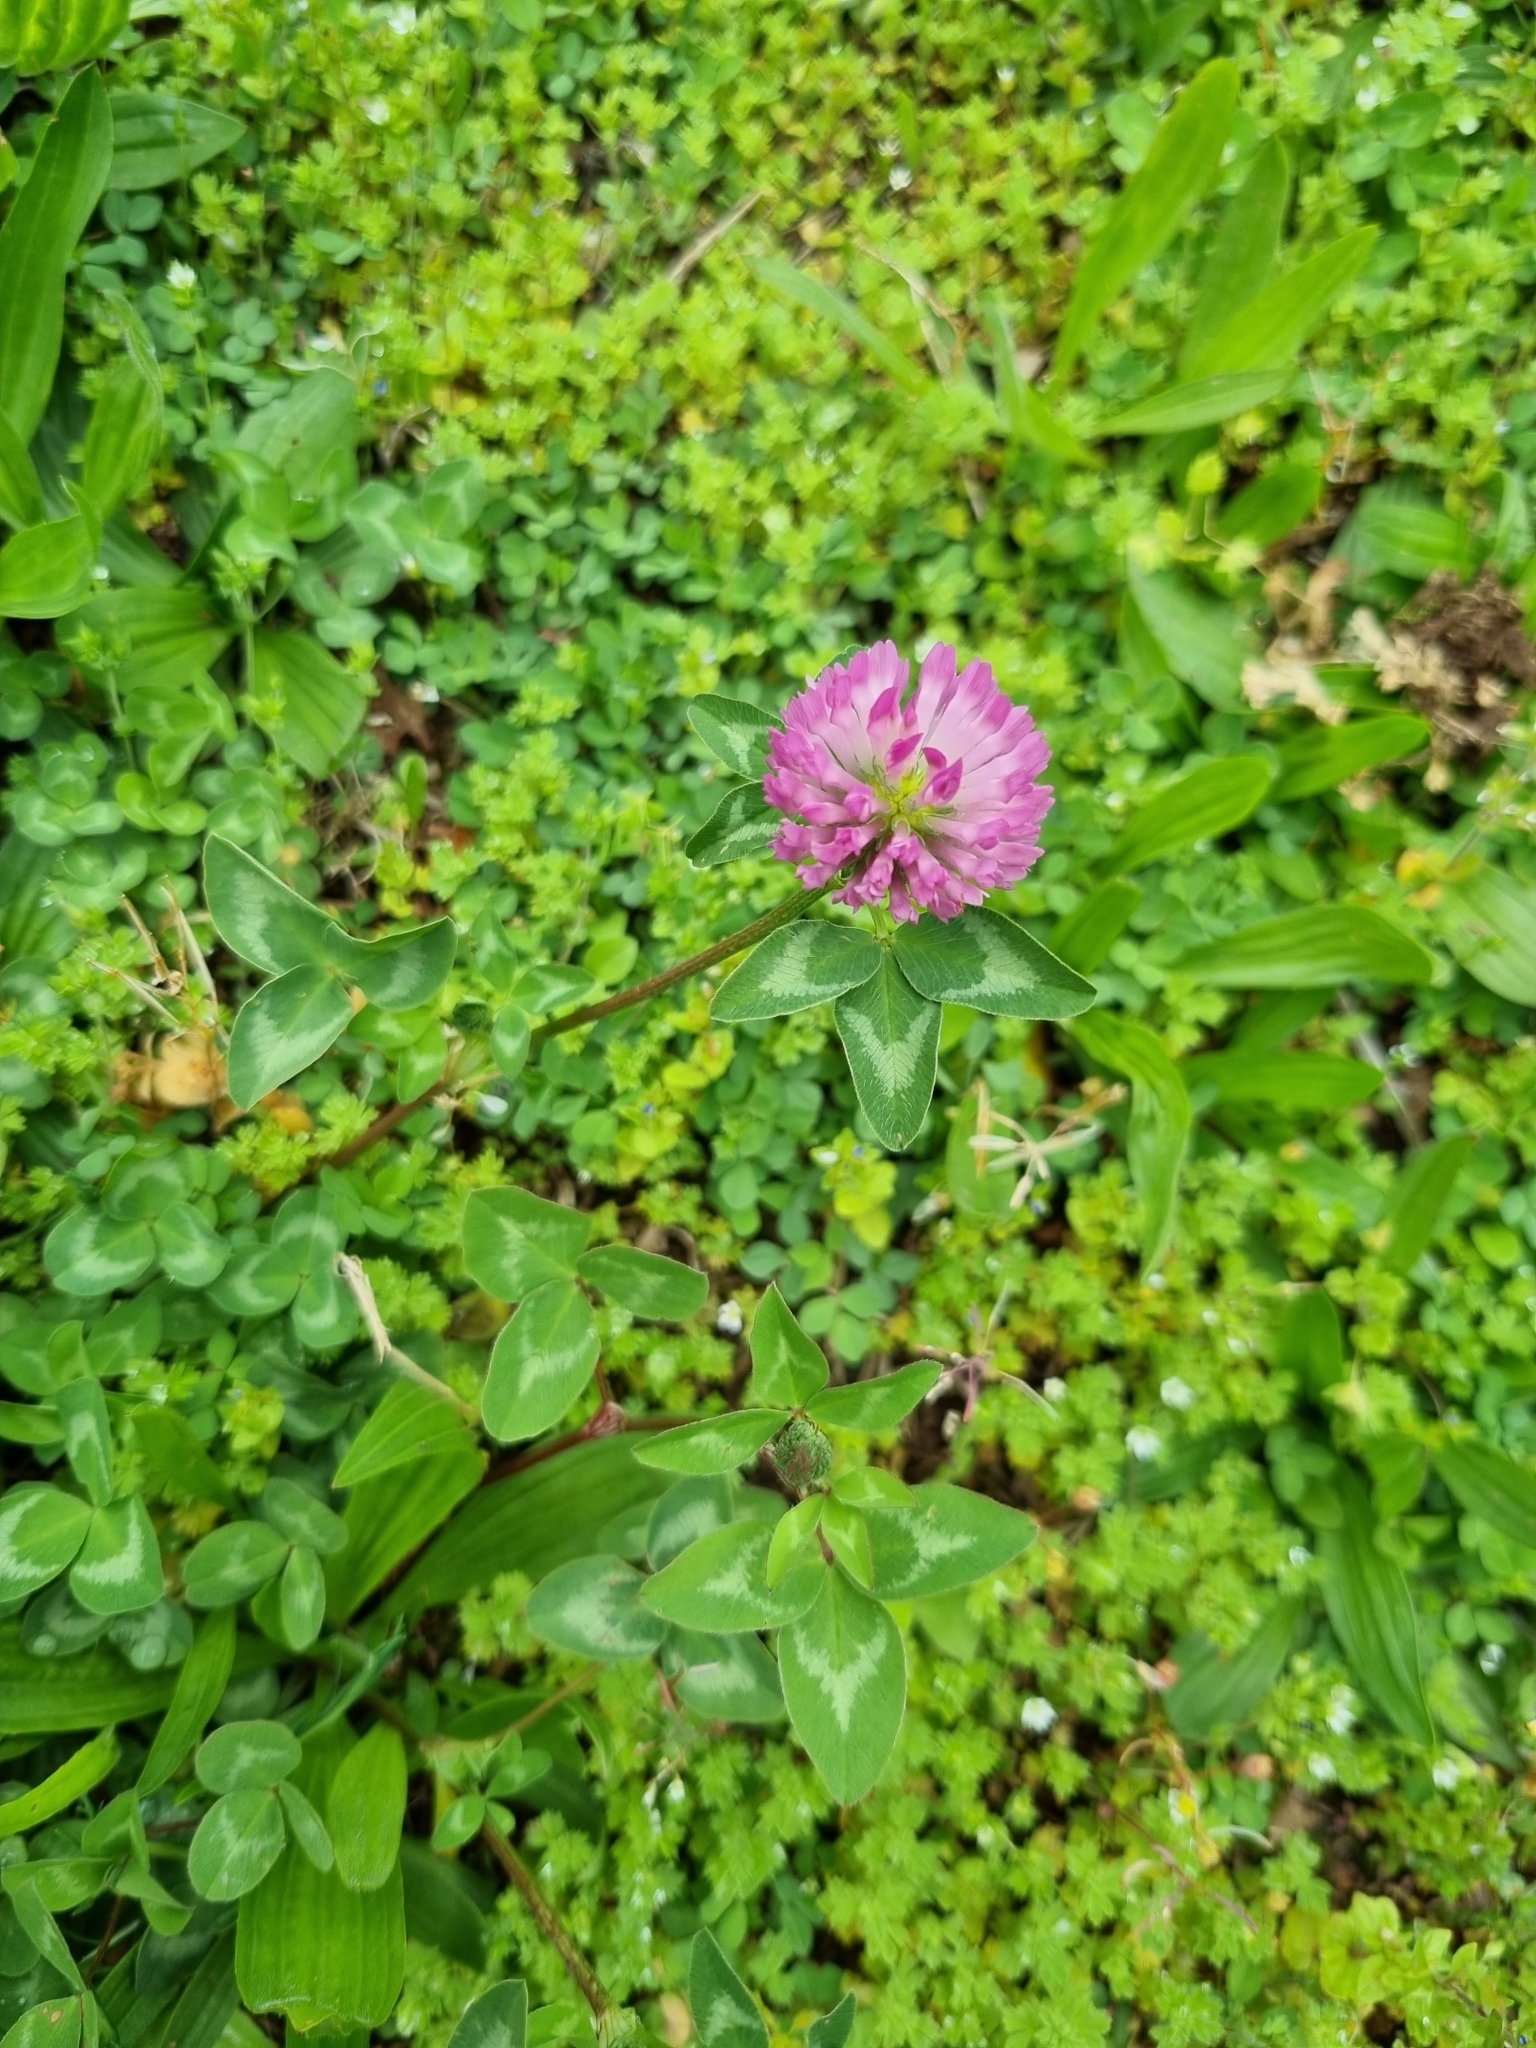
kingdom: Plantae
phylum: Tracheophyta
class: Magnoliopsida
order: Fabales
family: Fabaceae
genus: Trifolium
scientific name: Trifolium pratense
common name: Red clover
